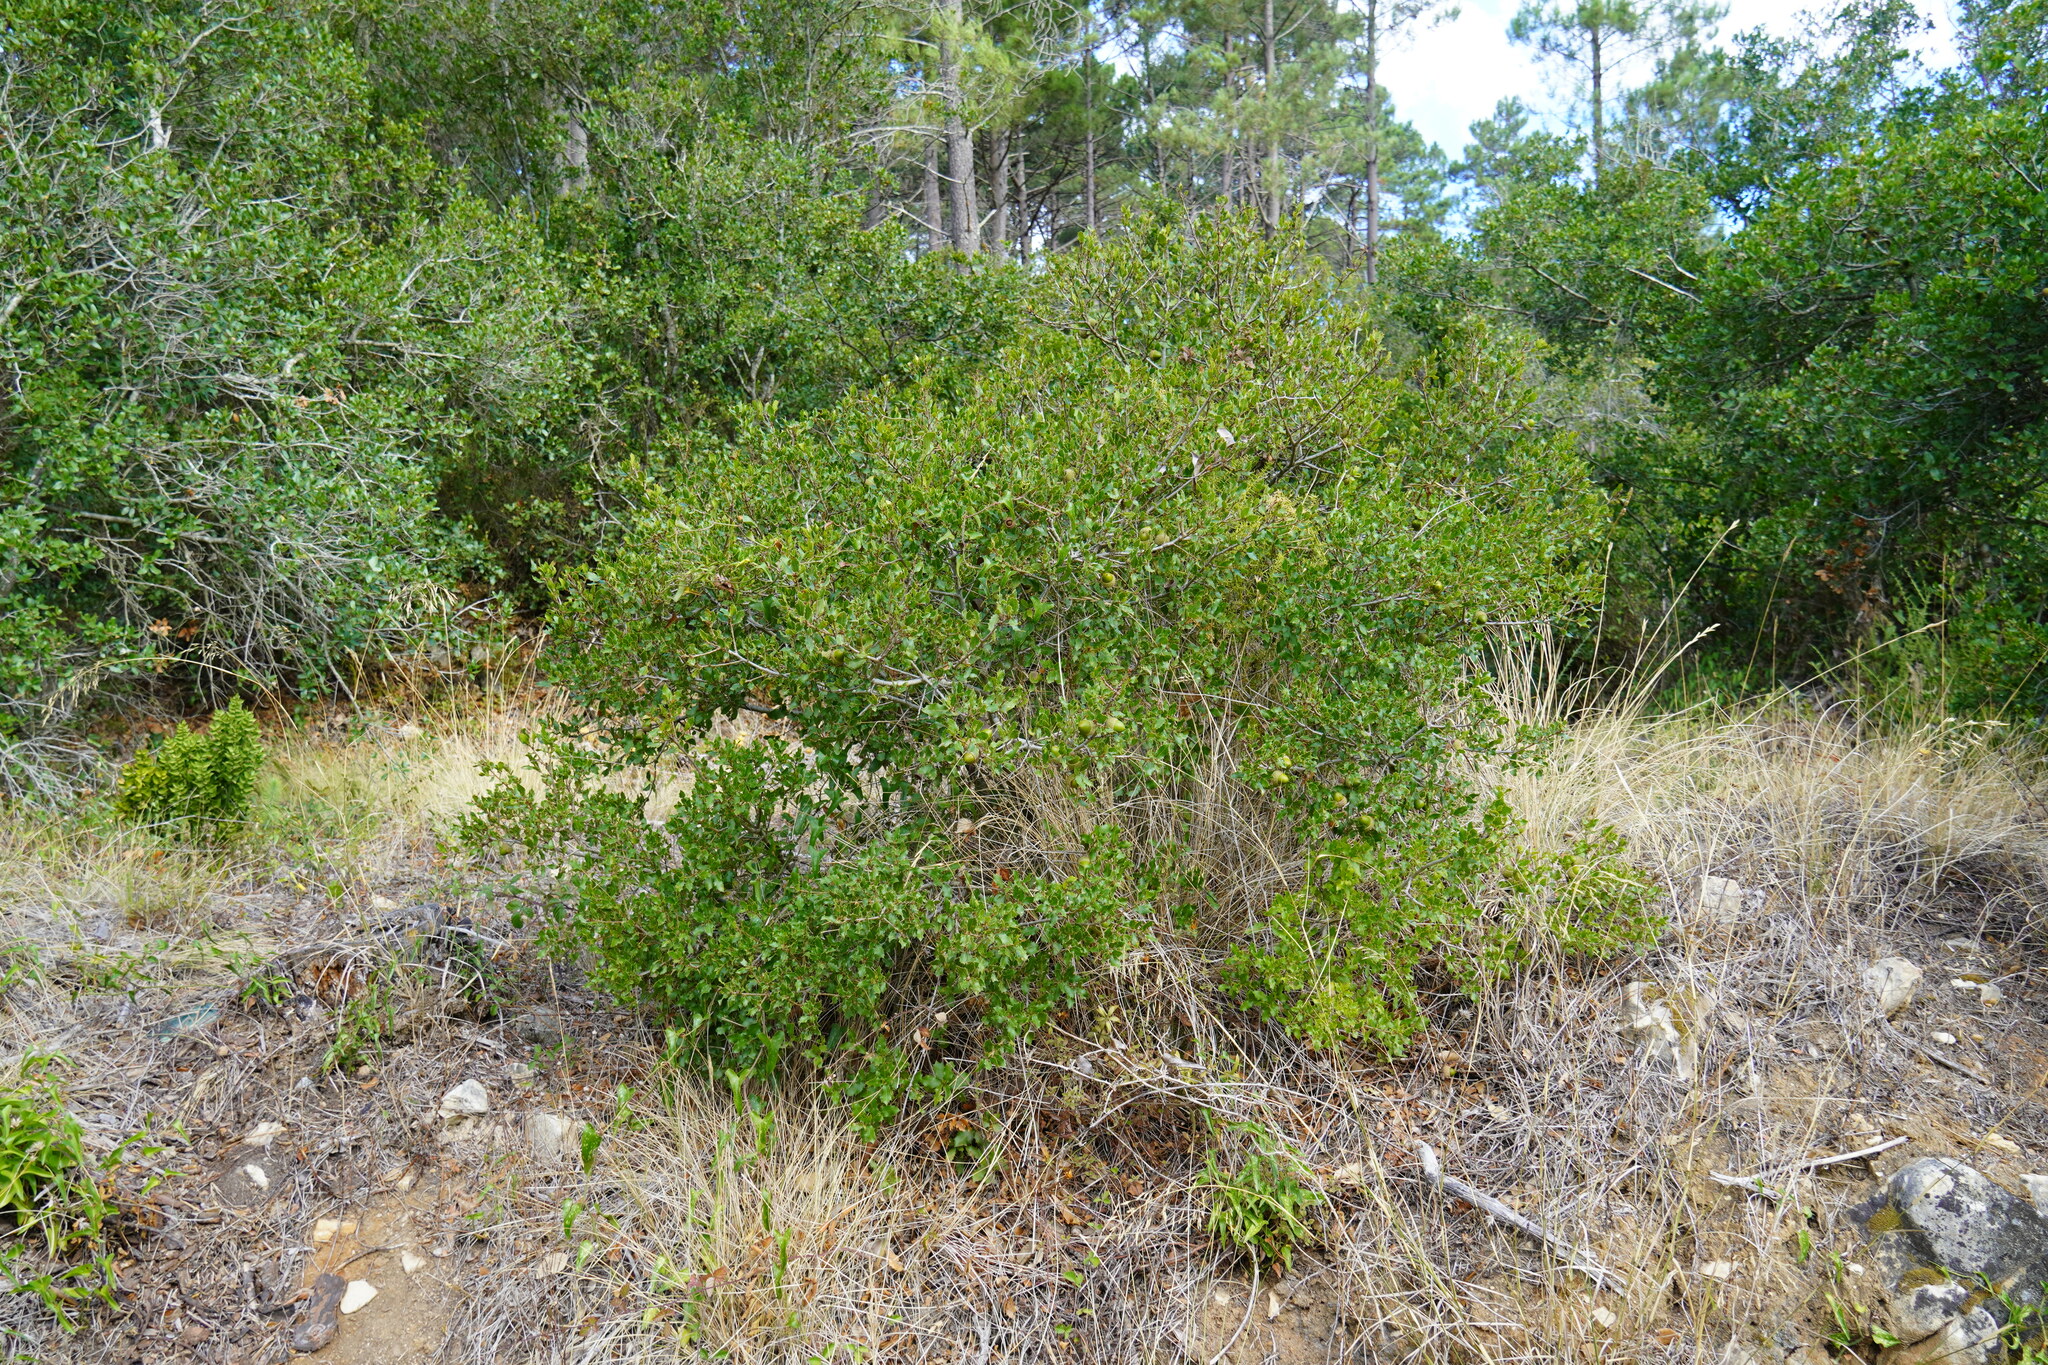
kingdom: Plantae
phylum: Tracheophyta
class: Magnoliopsida
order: Fagales
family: Fagaceae
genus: Quercus
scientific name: Quercus coccifera
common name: Kermes oak
